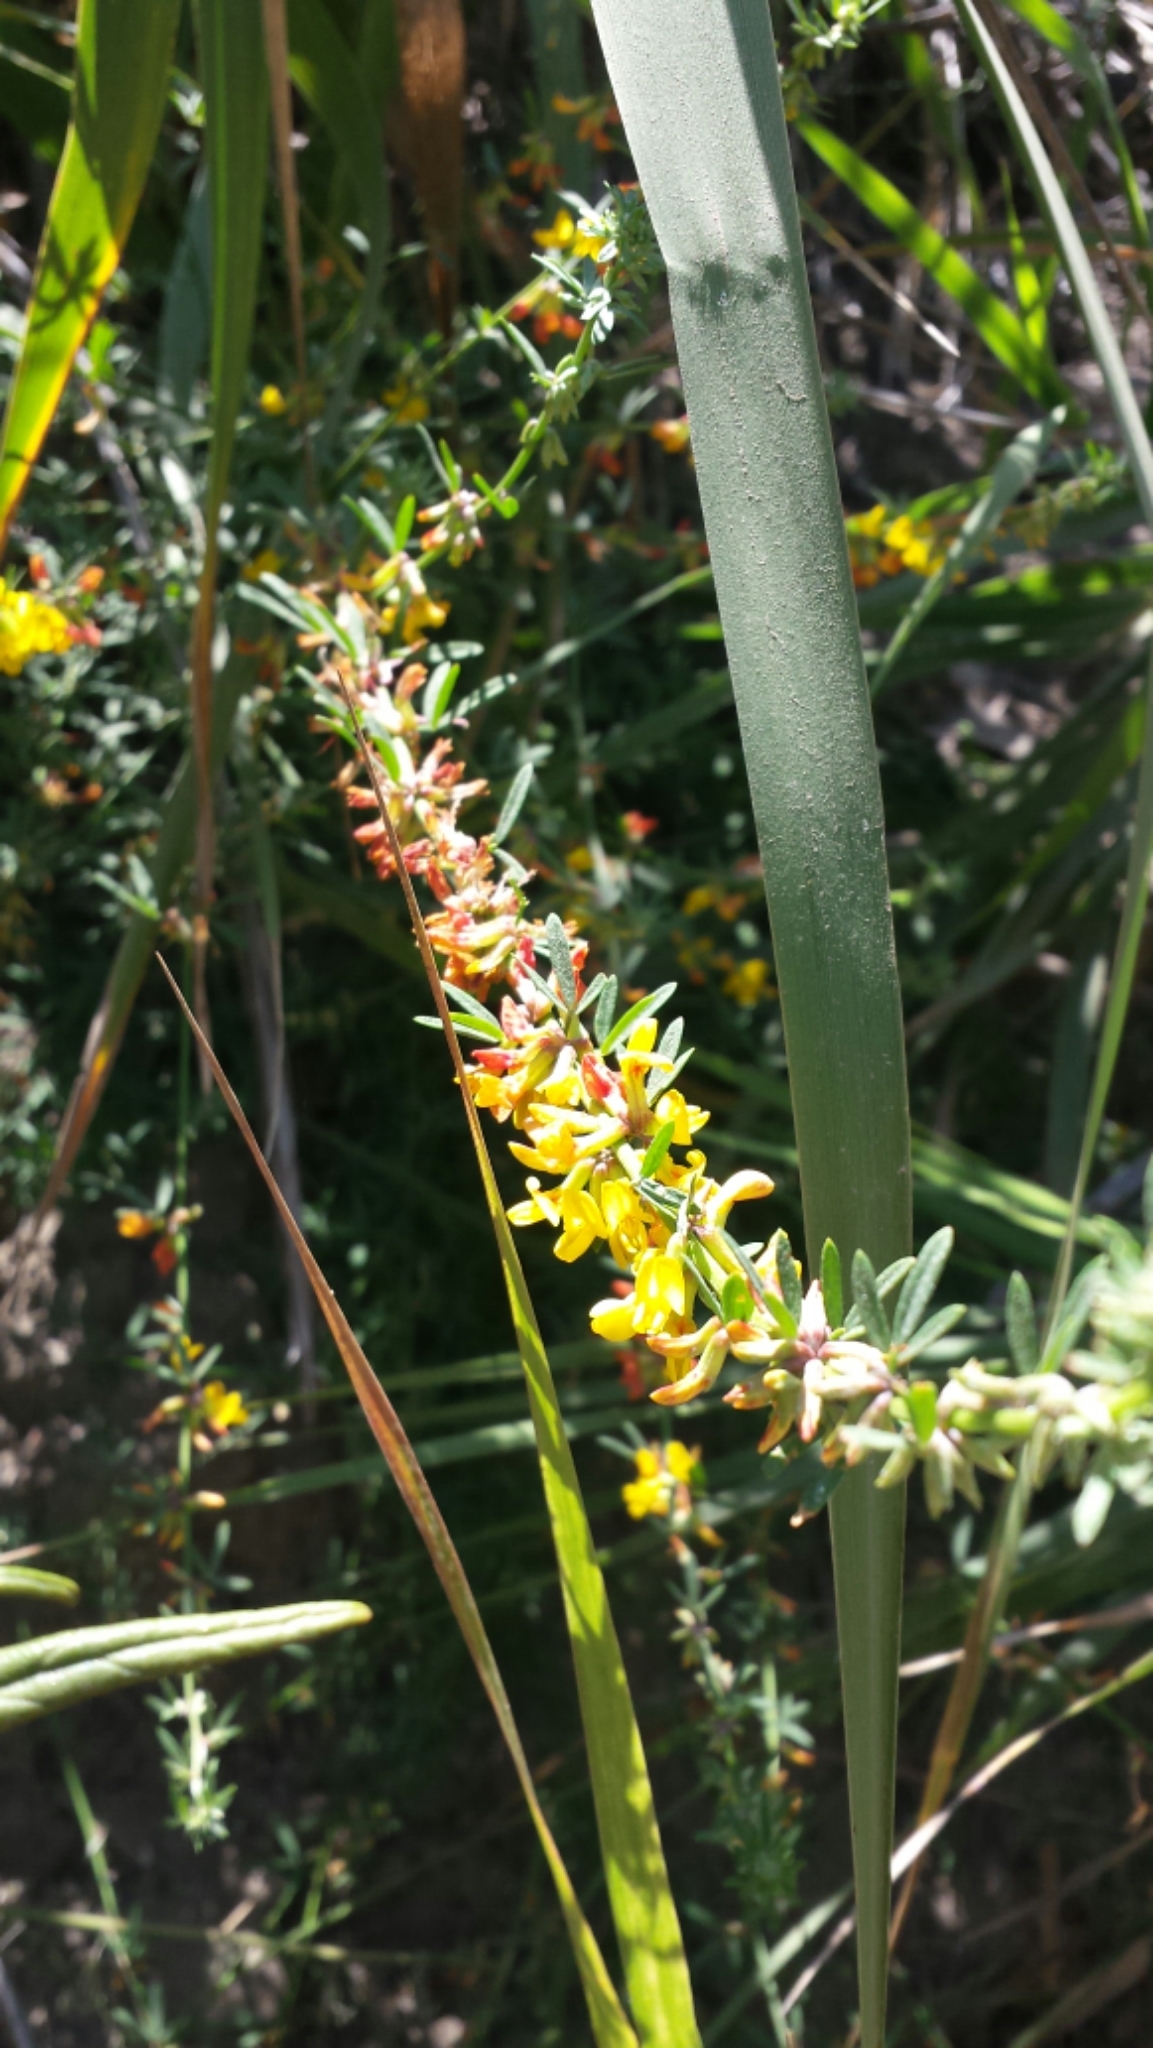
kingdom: Plantae
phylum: Tracheophyta
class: Magnoliopsida
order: Fabales
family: Fabaceae
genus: Acmispon
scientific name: Acmispon glaber
